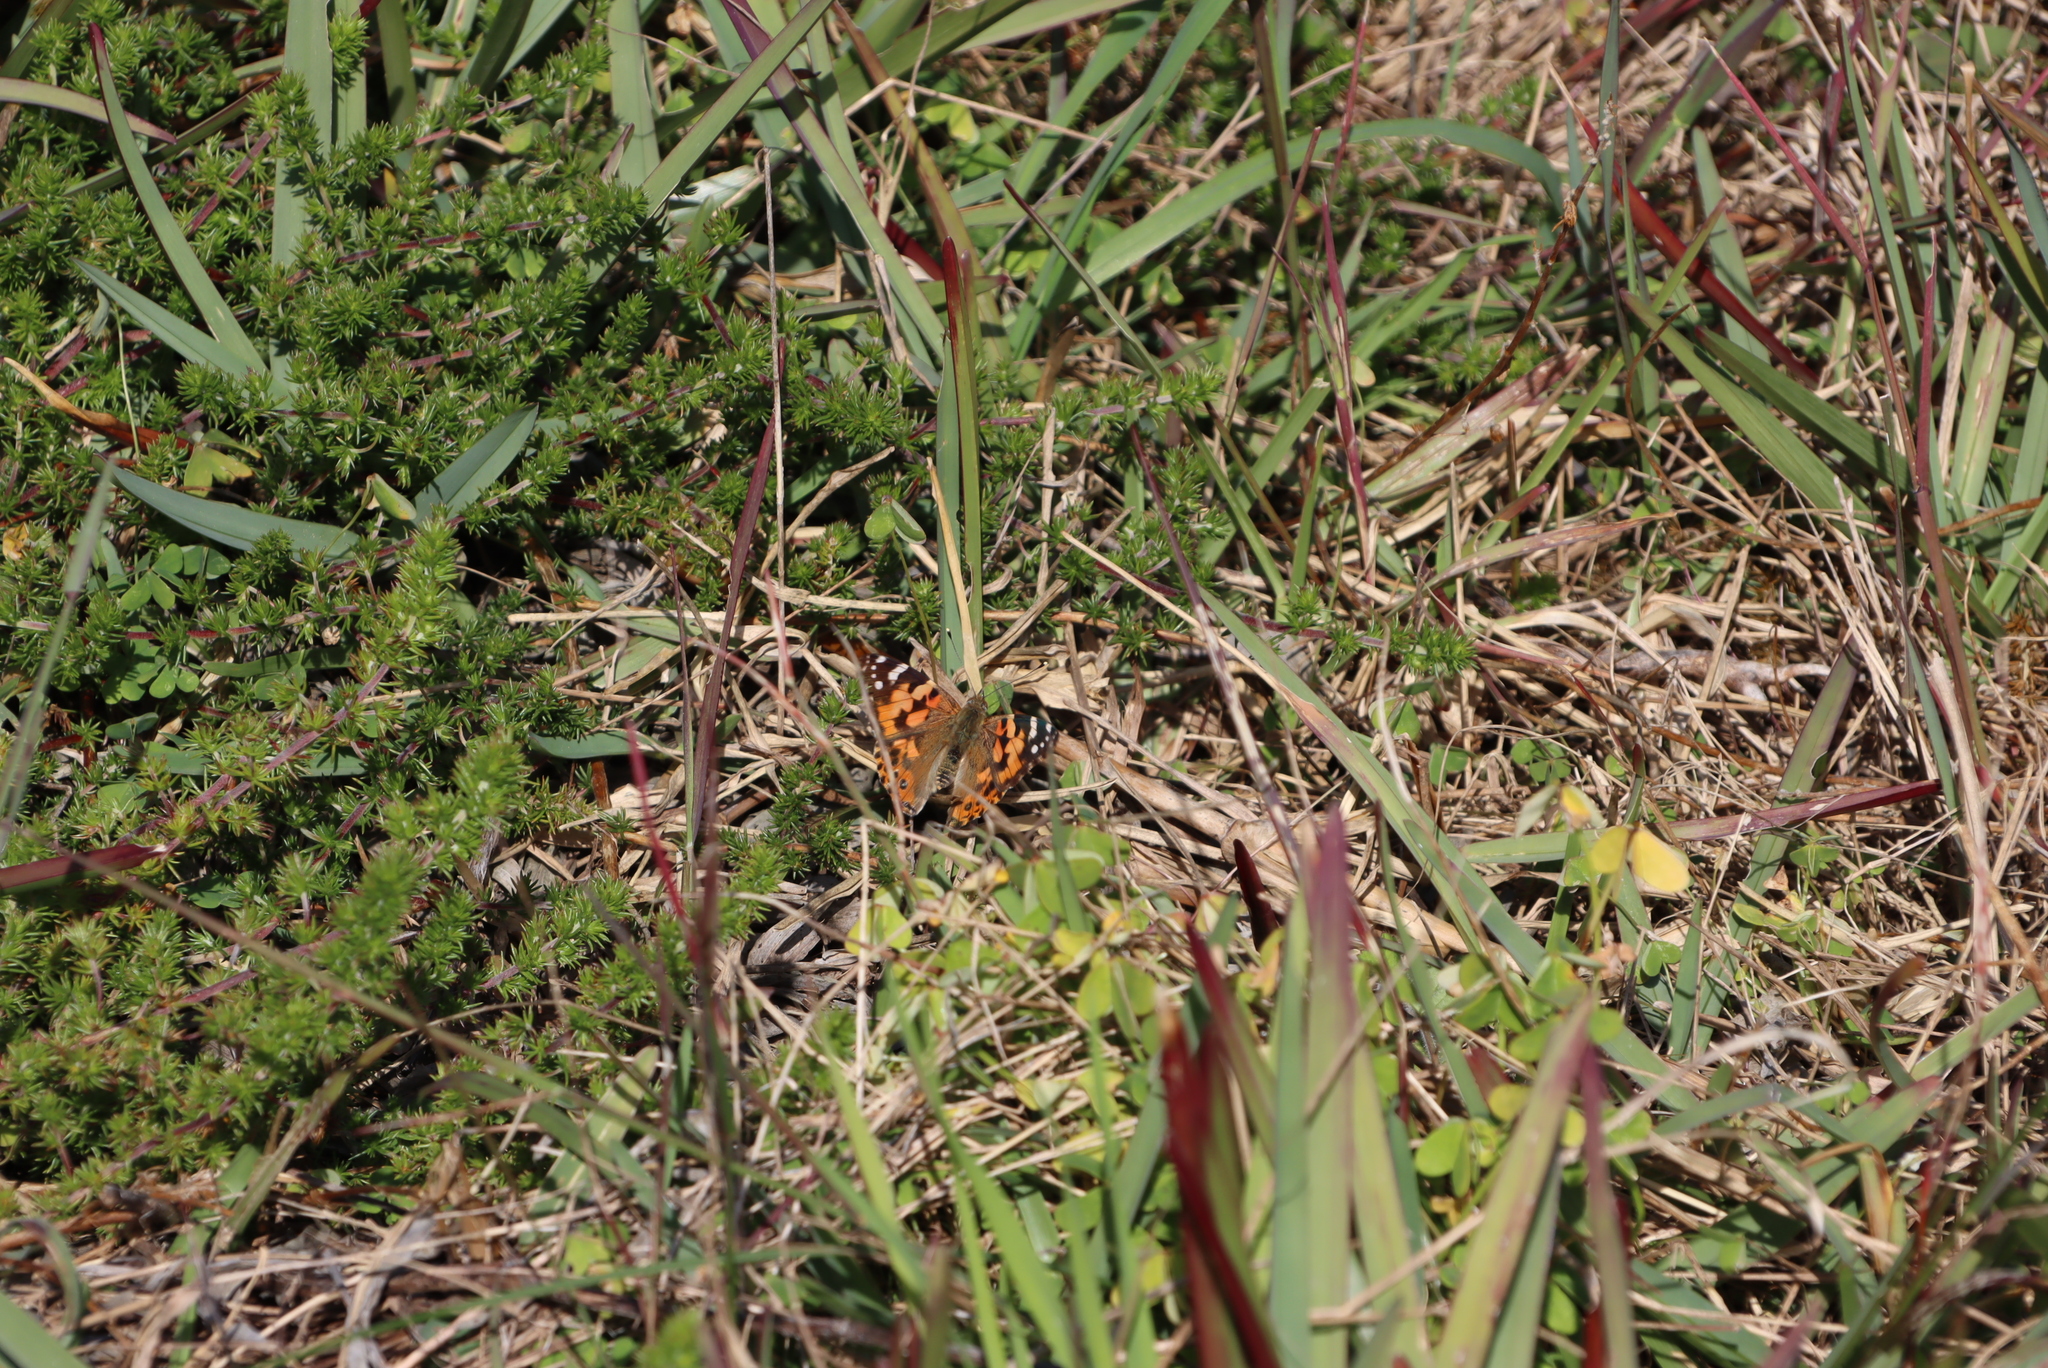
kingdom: Animalia
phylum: Arthropoda
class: Insecta
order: Lepidoptera
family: Nymphalidae
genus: Vanessa
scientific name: Vanessa cardui
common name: Painted lady
